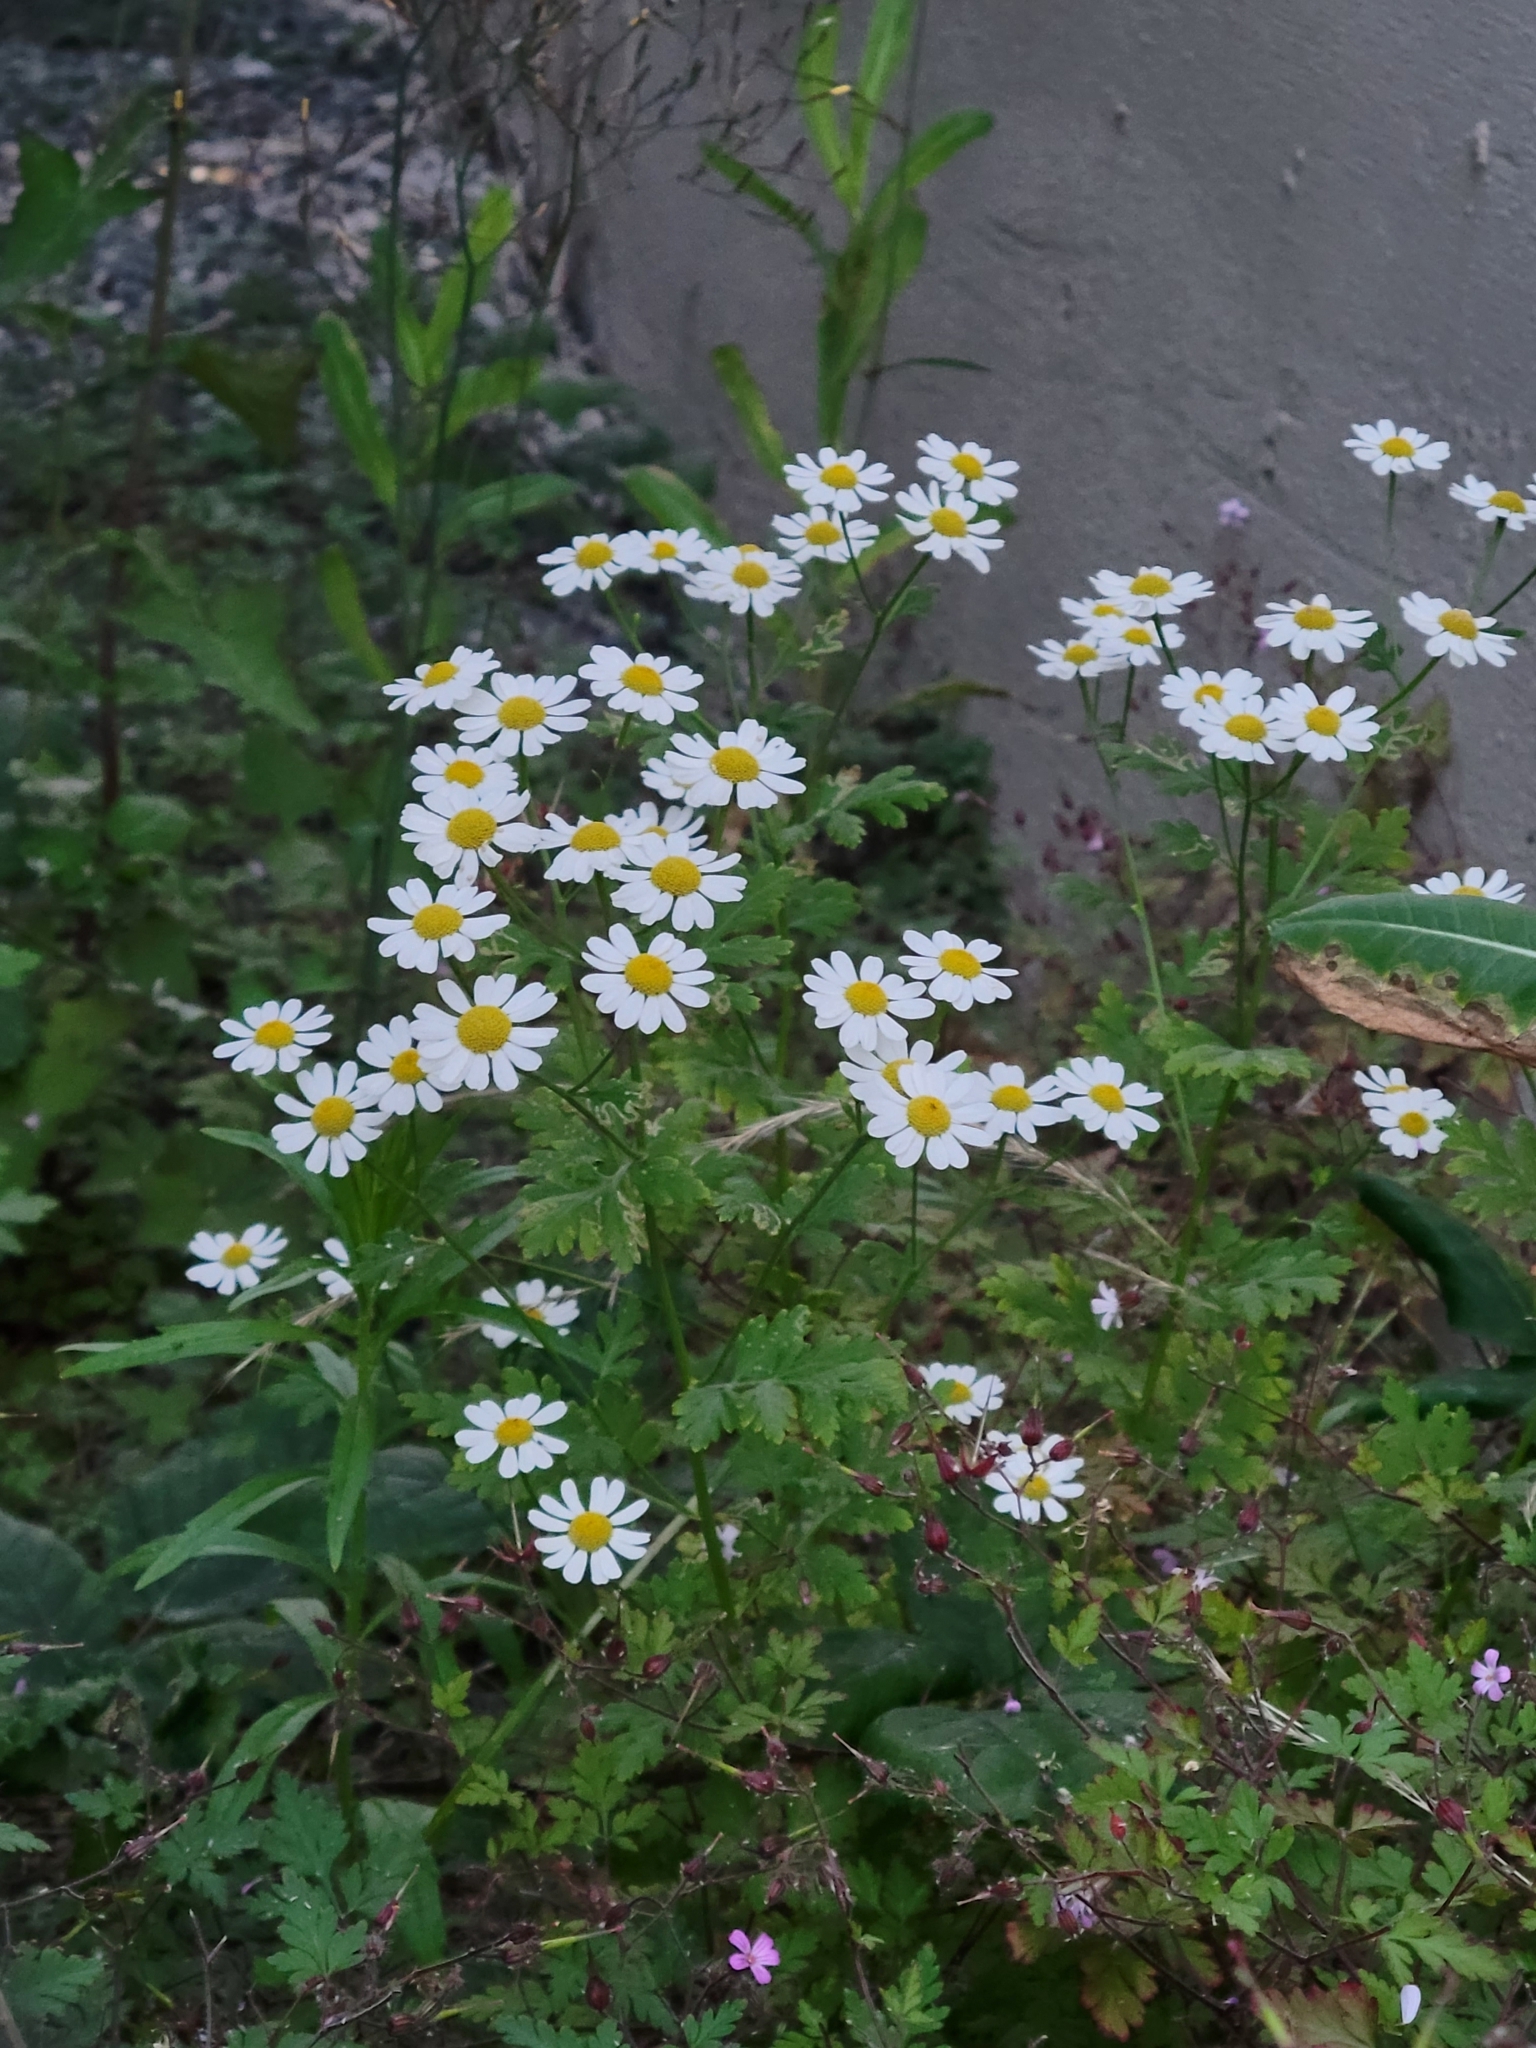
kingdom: Plantae
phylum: Tracheophyta
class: Magnoliopsida
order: Asterales
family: Asteraceae
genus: Tanacetum
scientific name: Tanacetum parthenium
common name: Feverfew
